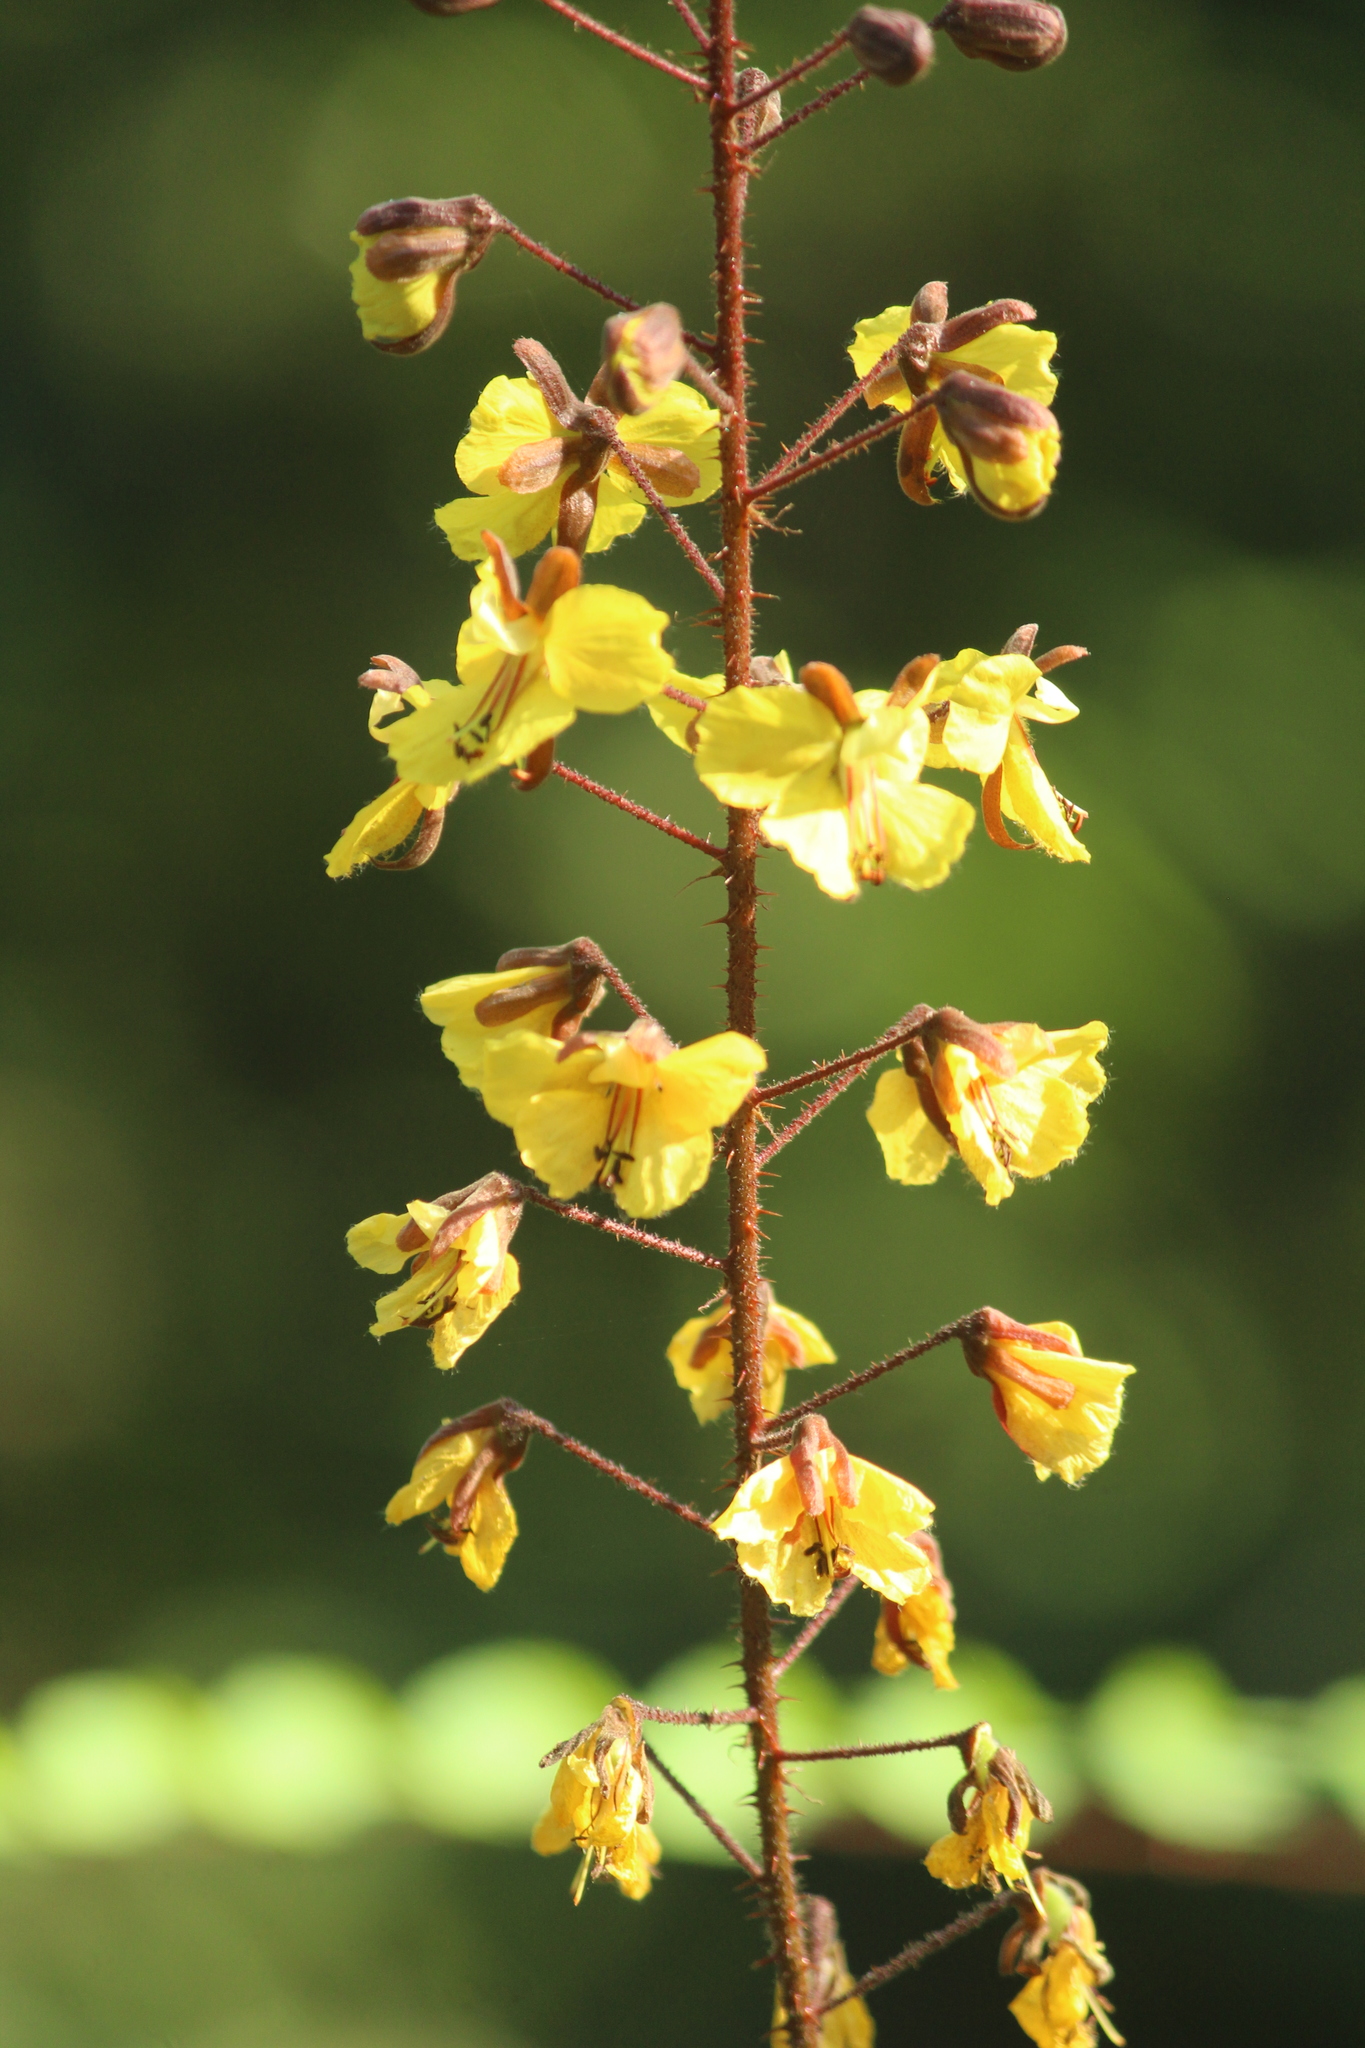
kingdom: Plantae
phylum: Tracheophyta
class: Magnoliopsida
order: Fabales
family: Fabaceae
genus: Hultholia
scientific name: Hultholia mimosoides
